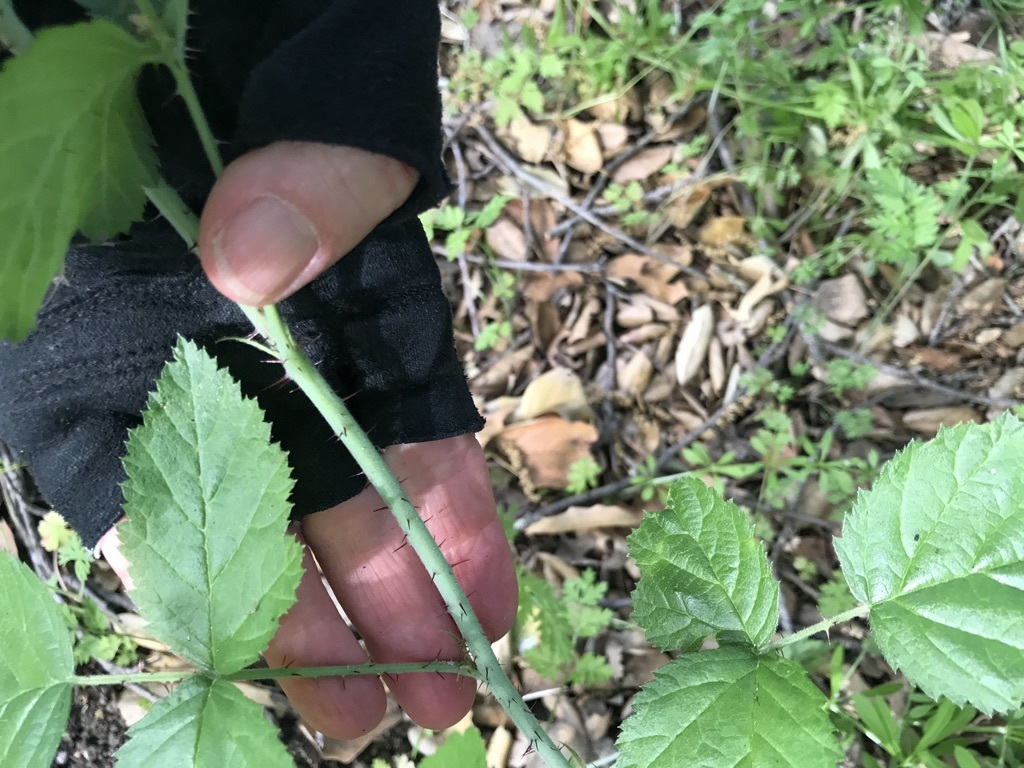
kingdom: Plantae
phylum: Tracheophyta
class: Magnoliopsida
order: Rosales
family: Rosaceae
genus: Rubus
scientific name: Rubus ursinus
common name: Pacific blackberry
